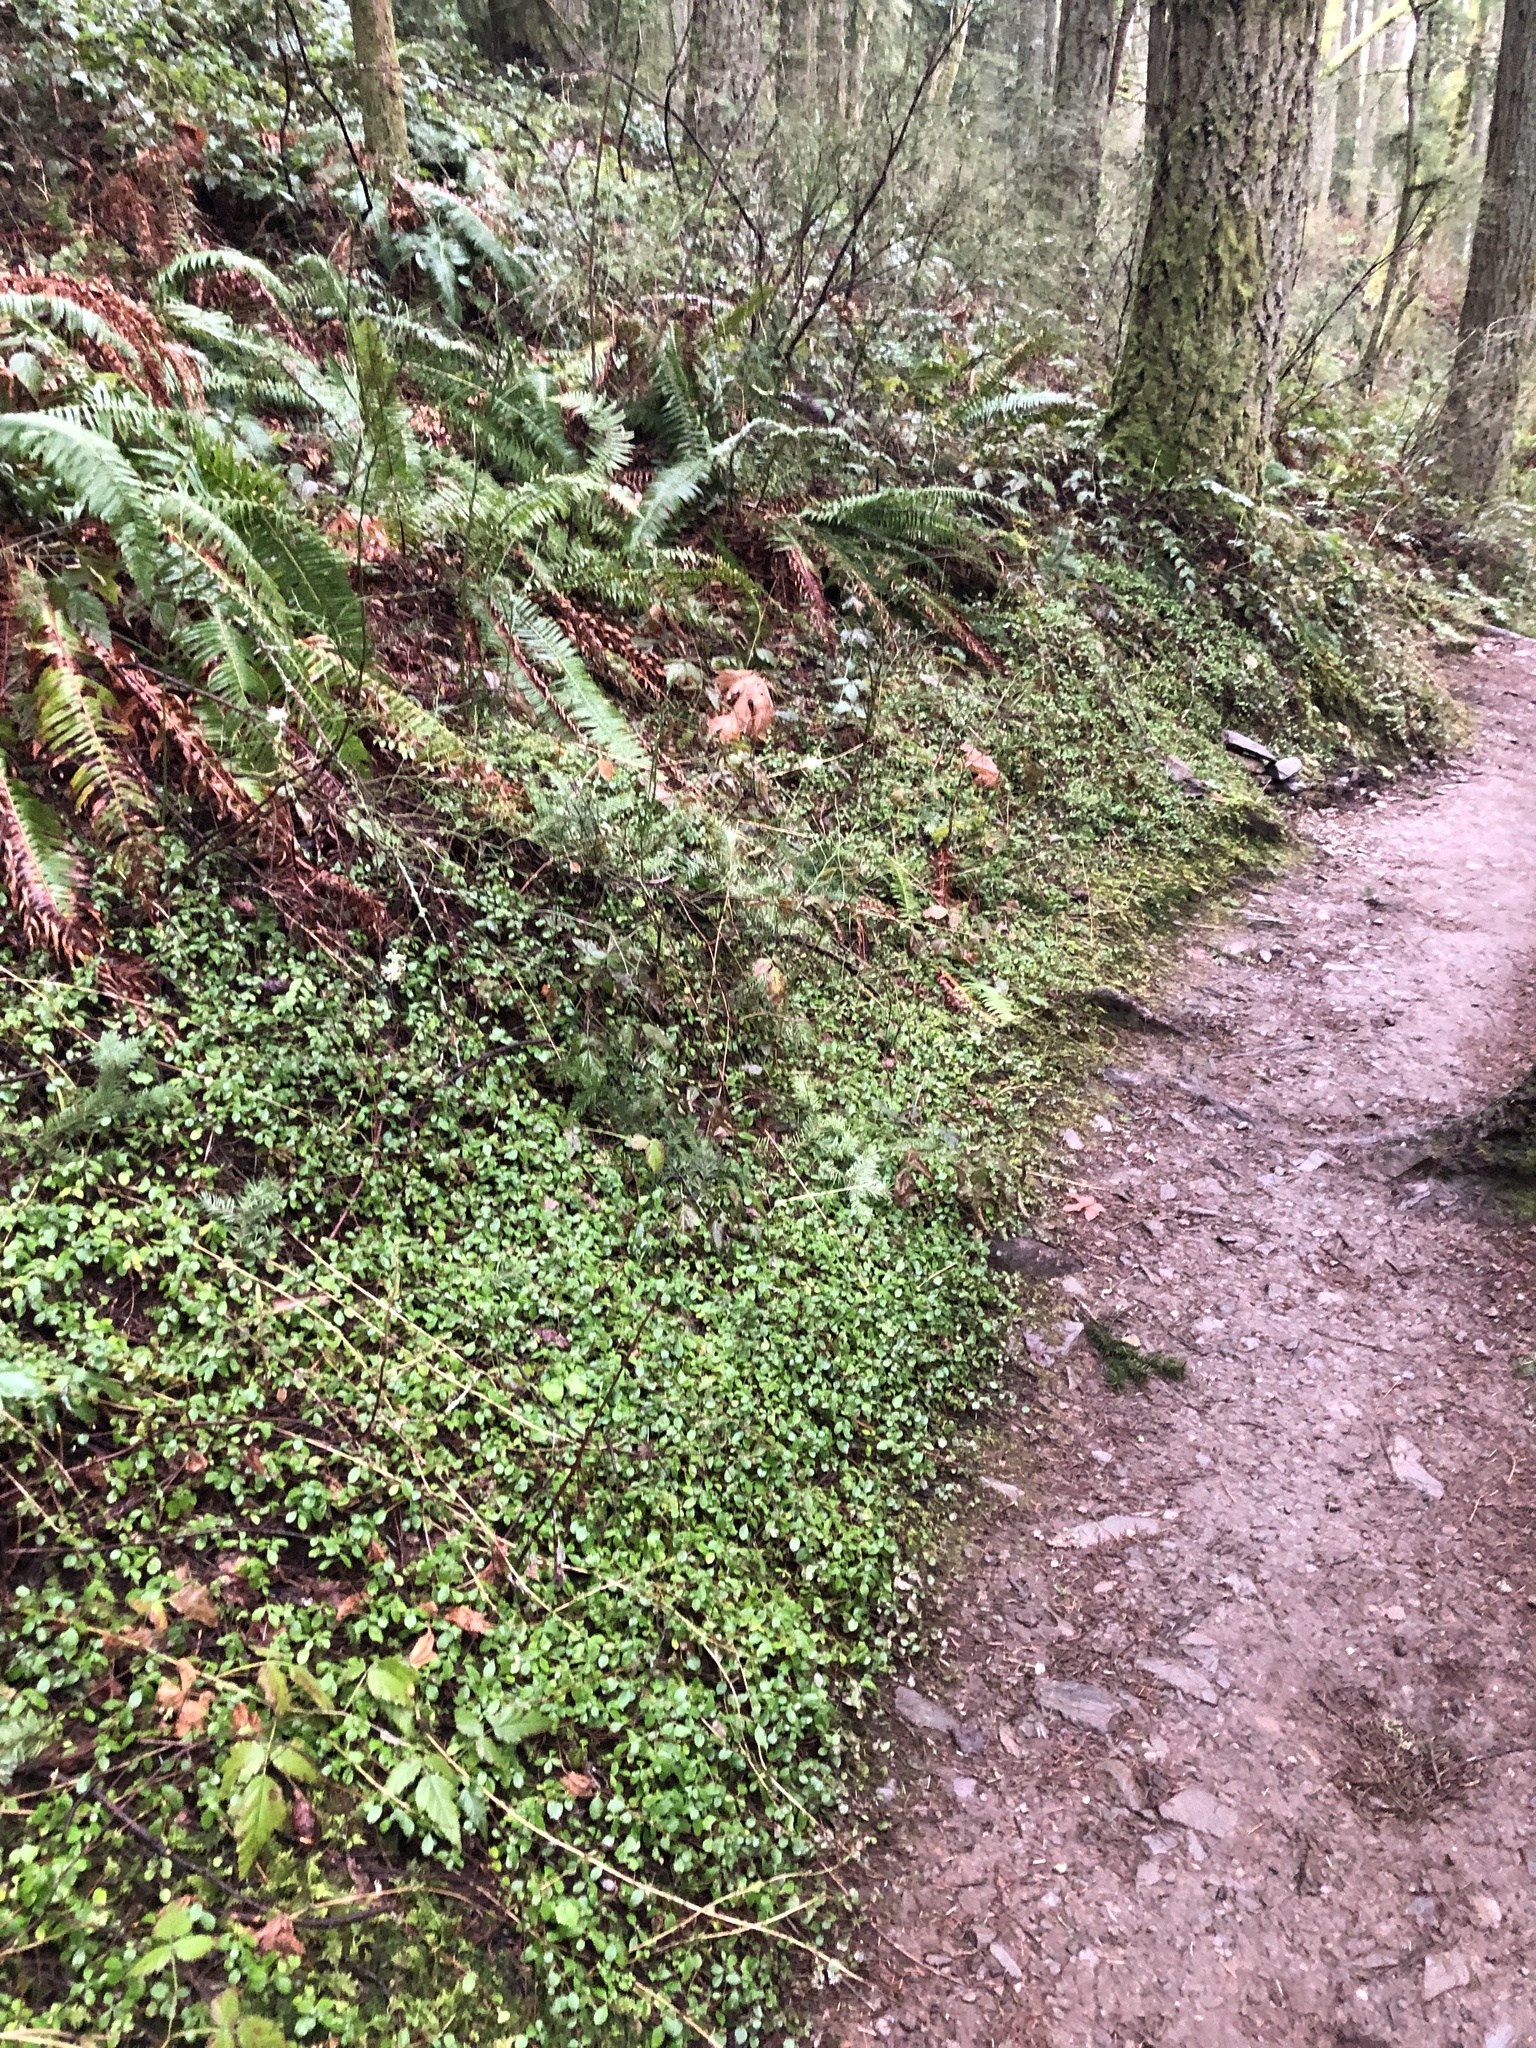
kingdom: Plantae
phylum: Tracheophyta
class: Magnoliopsida
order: Dipsacales
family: Caprifoliaceae
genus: Linnaea
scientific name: Linnaea borealis
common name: Twinflower
